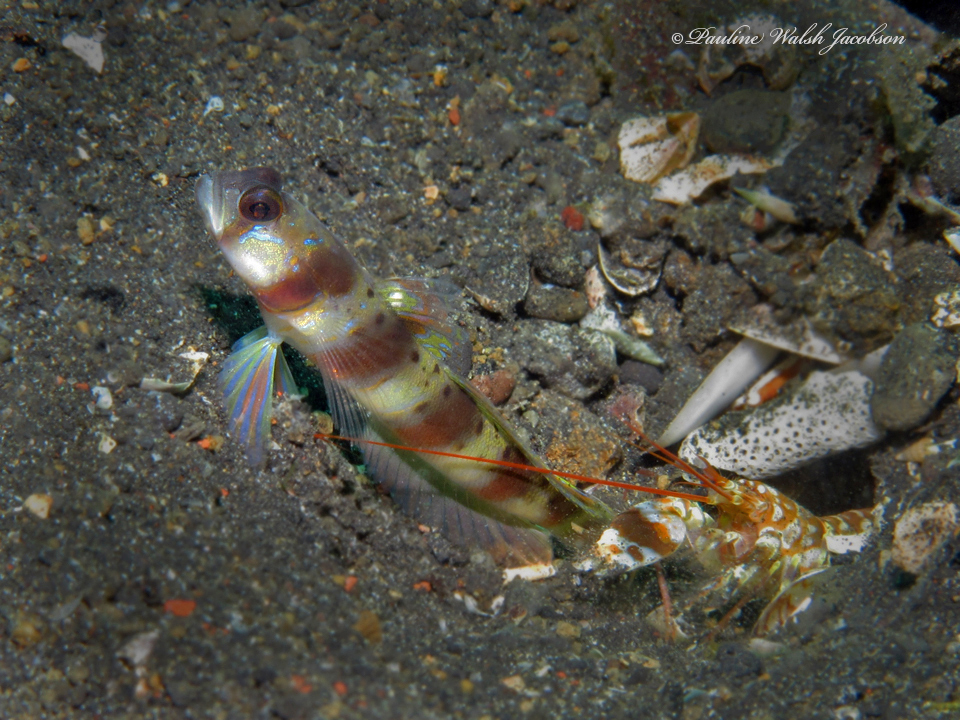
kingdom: Animalia
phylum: Chordata
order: Perciformes
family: Gobiidae
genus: Amblyeleotris
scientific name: Amblyeleotris arcupinna
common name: Arcfin shrimpgoby
